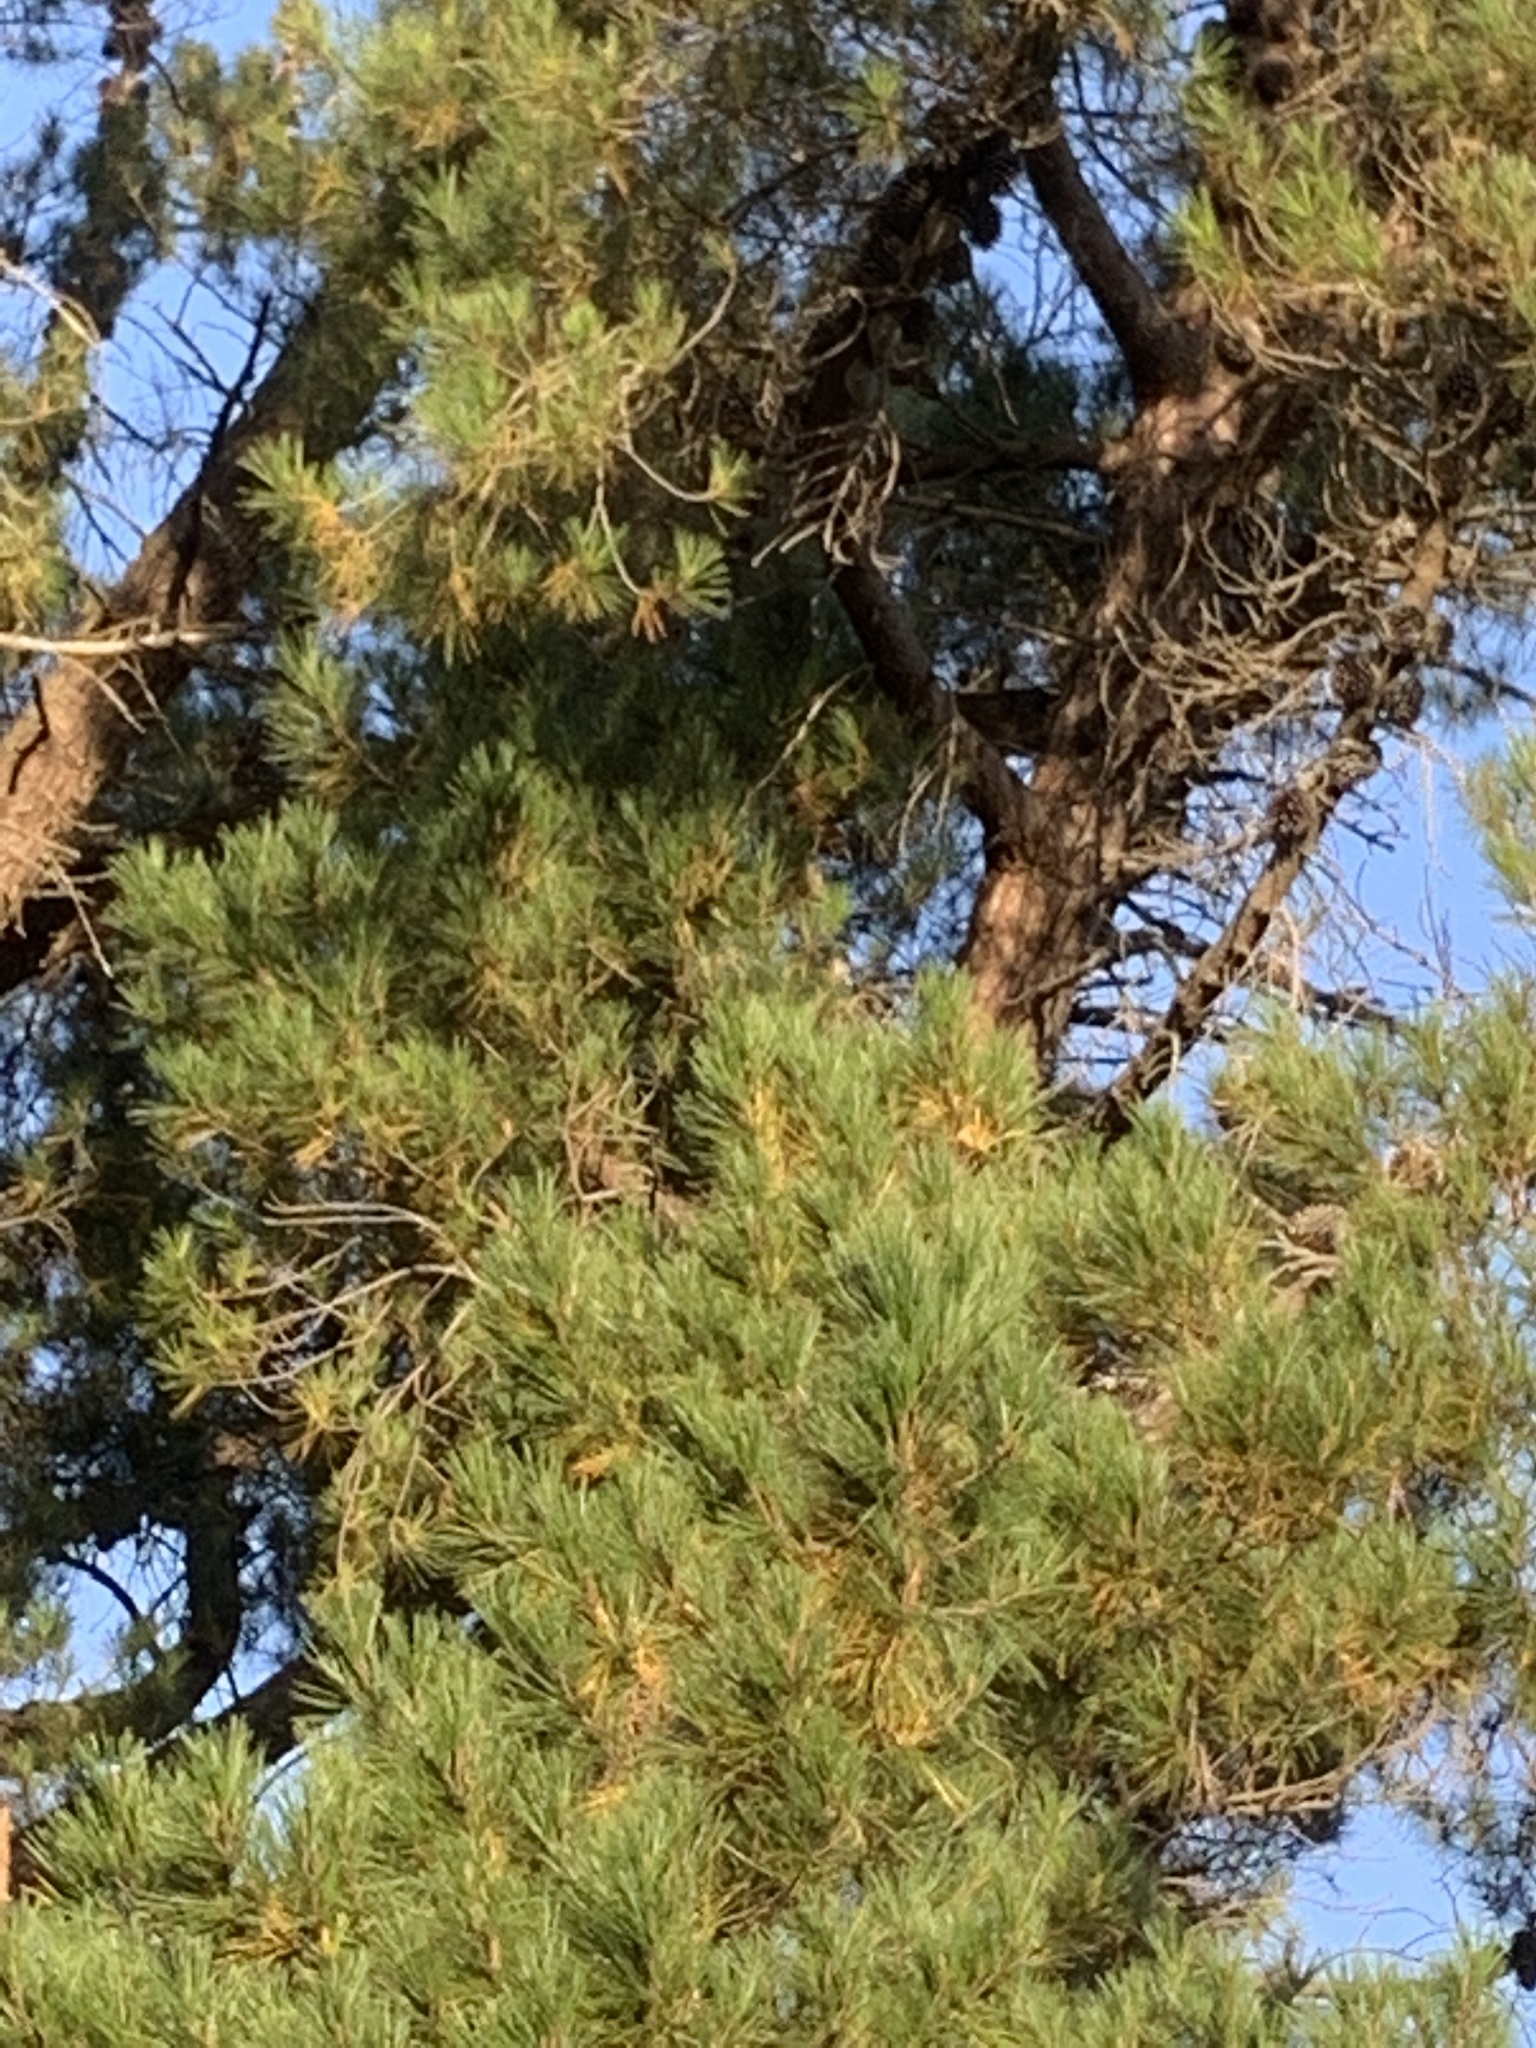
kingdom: Plantae
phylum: Tracheophyta
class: Pinopsida
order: Pinales
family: Pinaceae
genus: Pinus
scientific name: Pinus radiata
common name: Monterey pine
